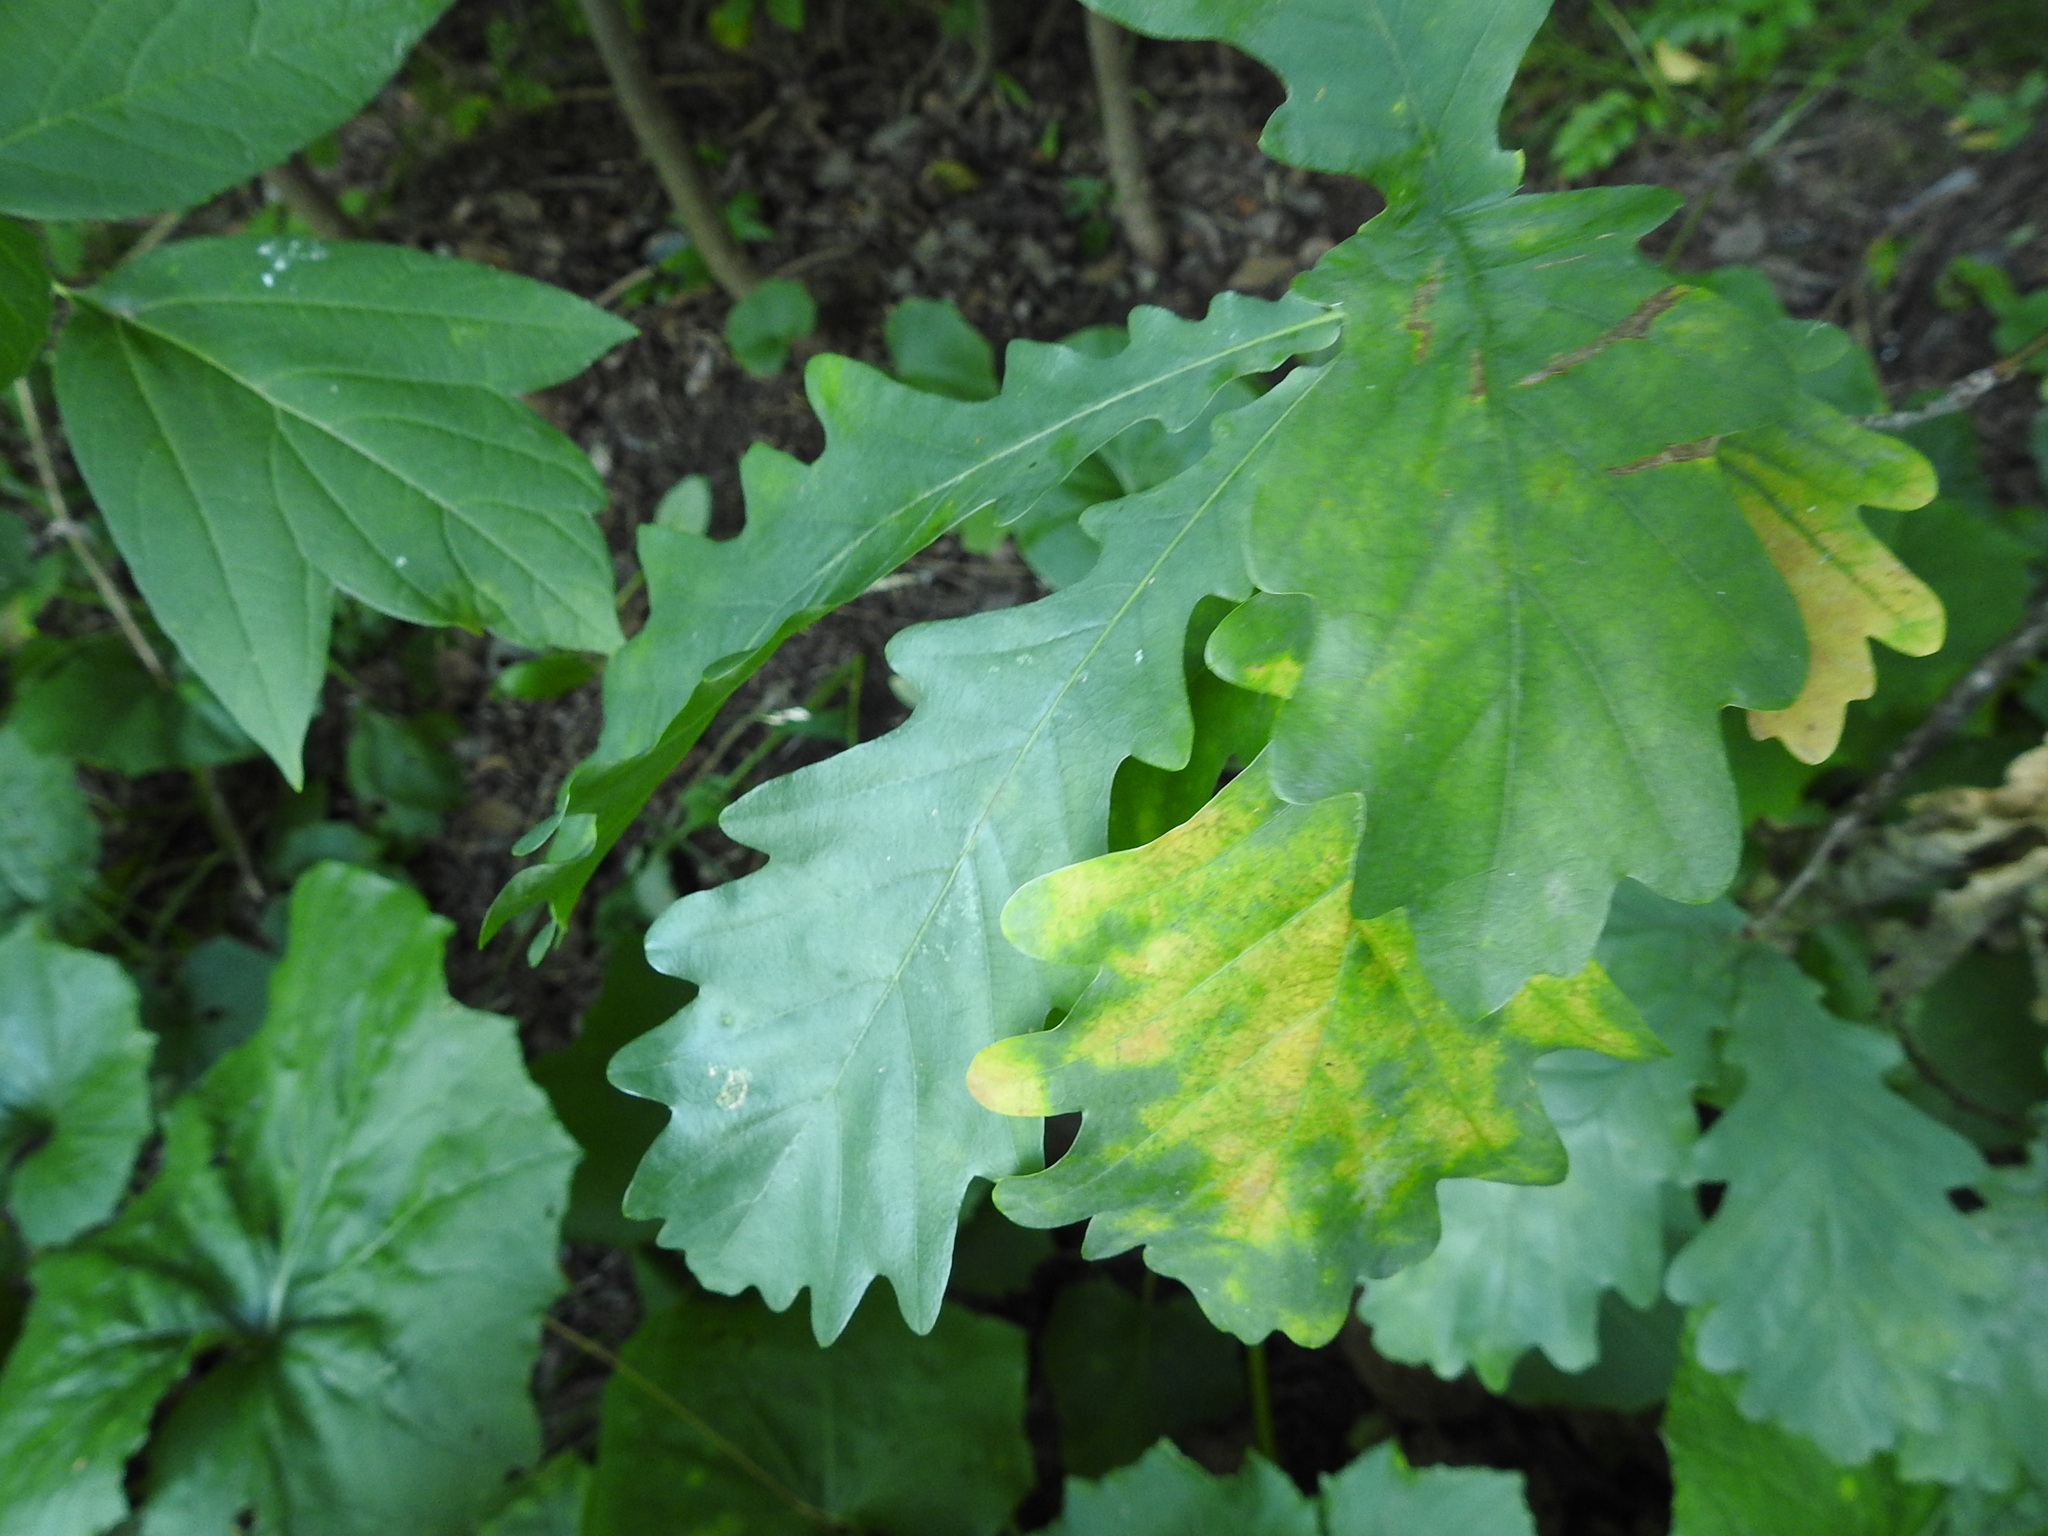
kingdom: Plantae
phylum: Tracheophyta
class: Magnoliopsida
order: Fagales
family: Fagaceae
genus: Quercus
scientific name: Quercus robur
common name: Pedunculate oak
